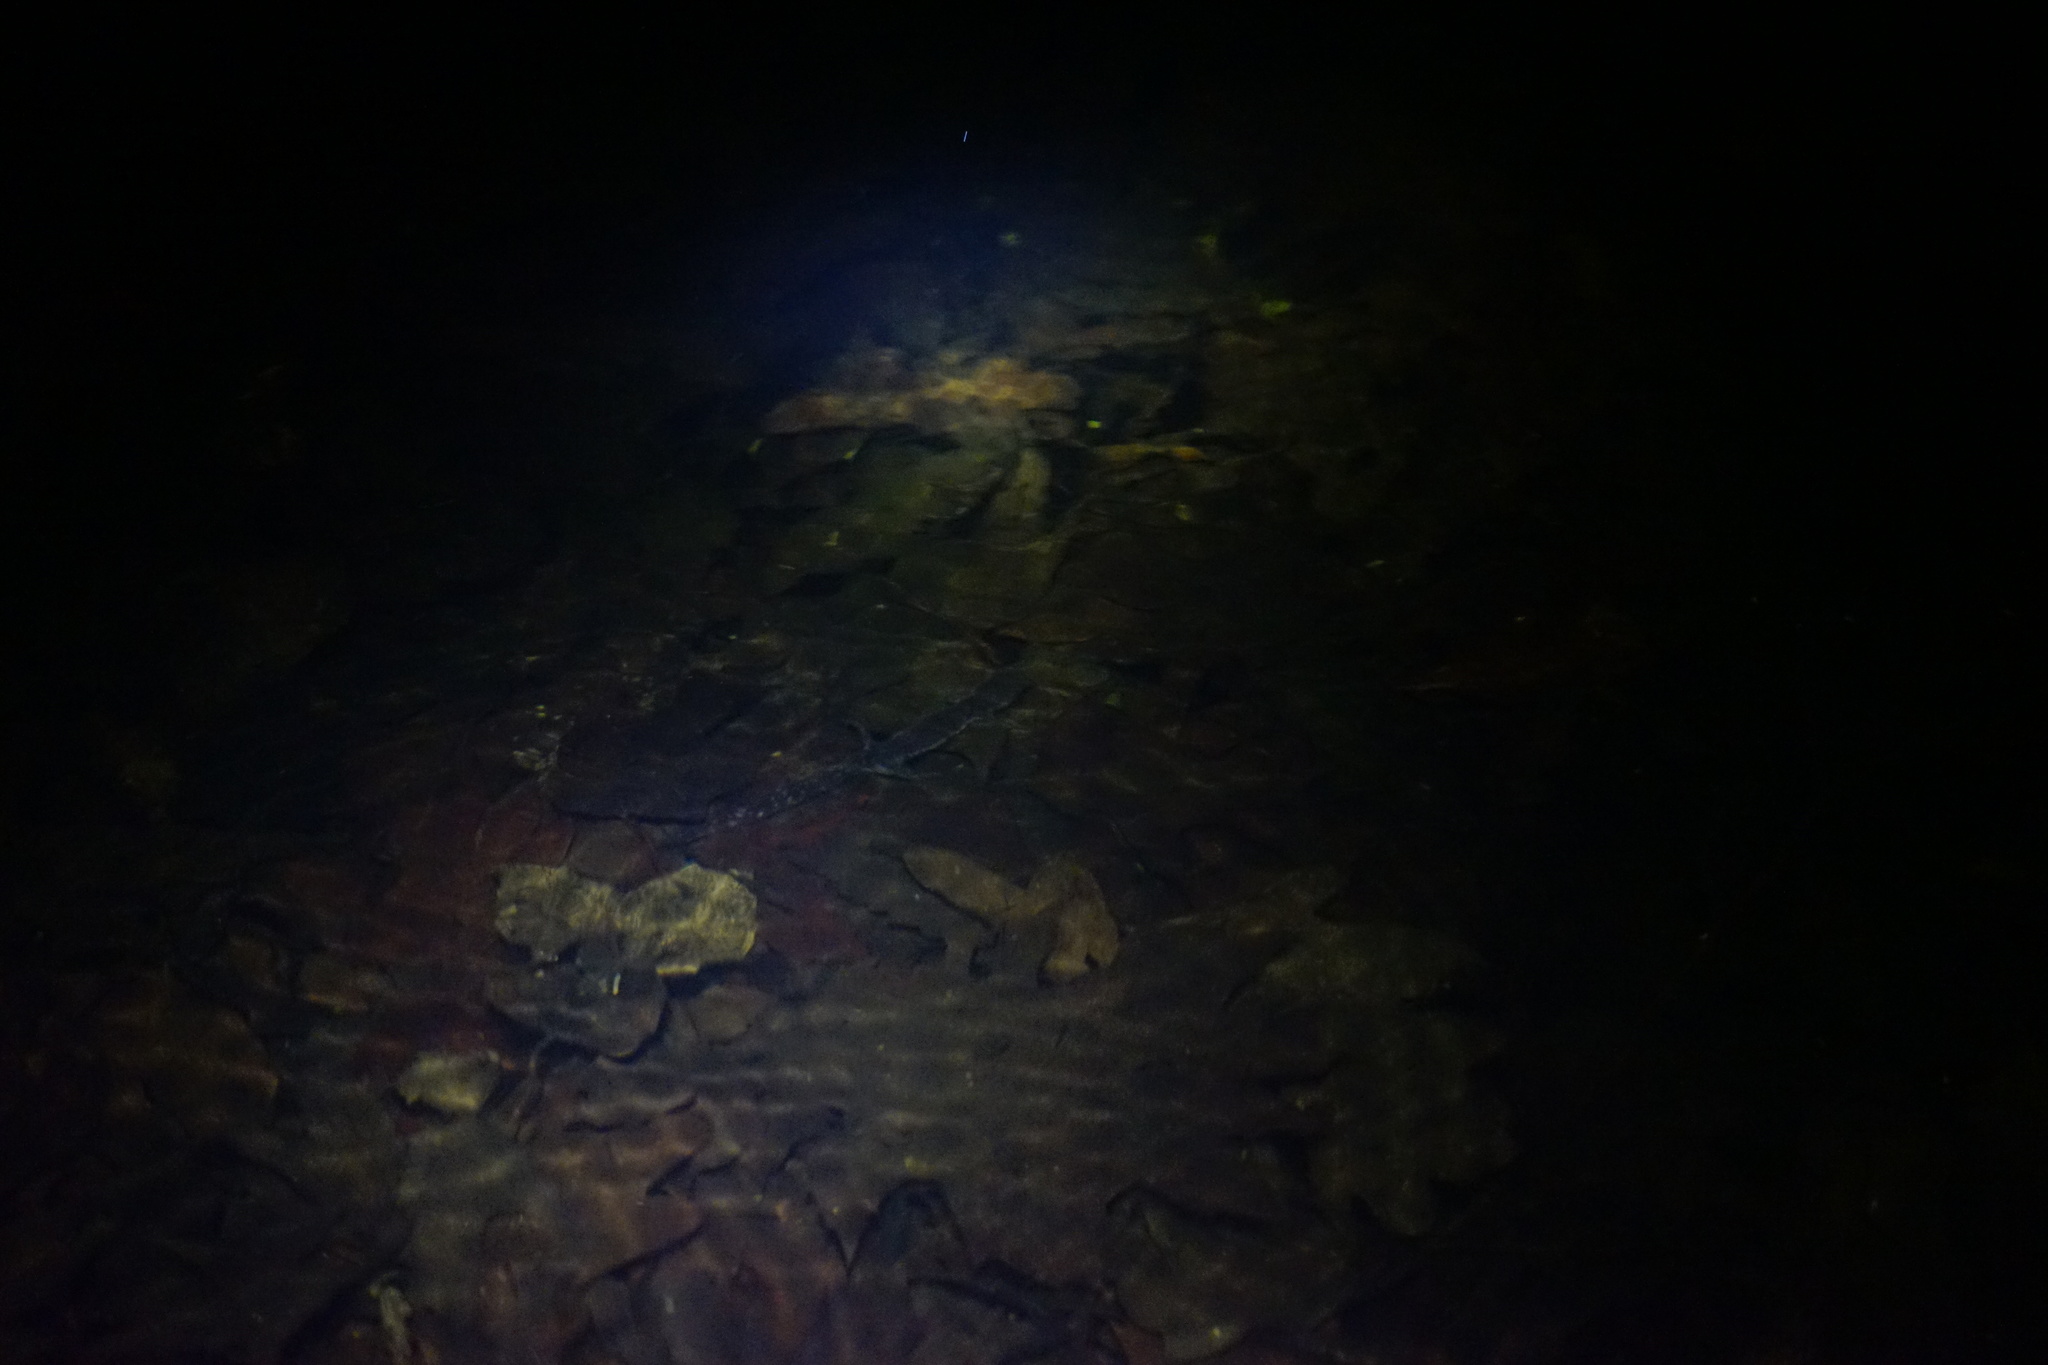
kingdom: Animalia
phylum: Chordata
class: Amphibia
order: Caudata
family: Ambystomatidae
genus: Ambystoma
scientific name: Ambystoma laterale
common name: Blue-spotted salamander
